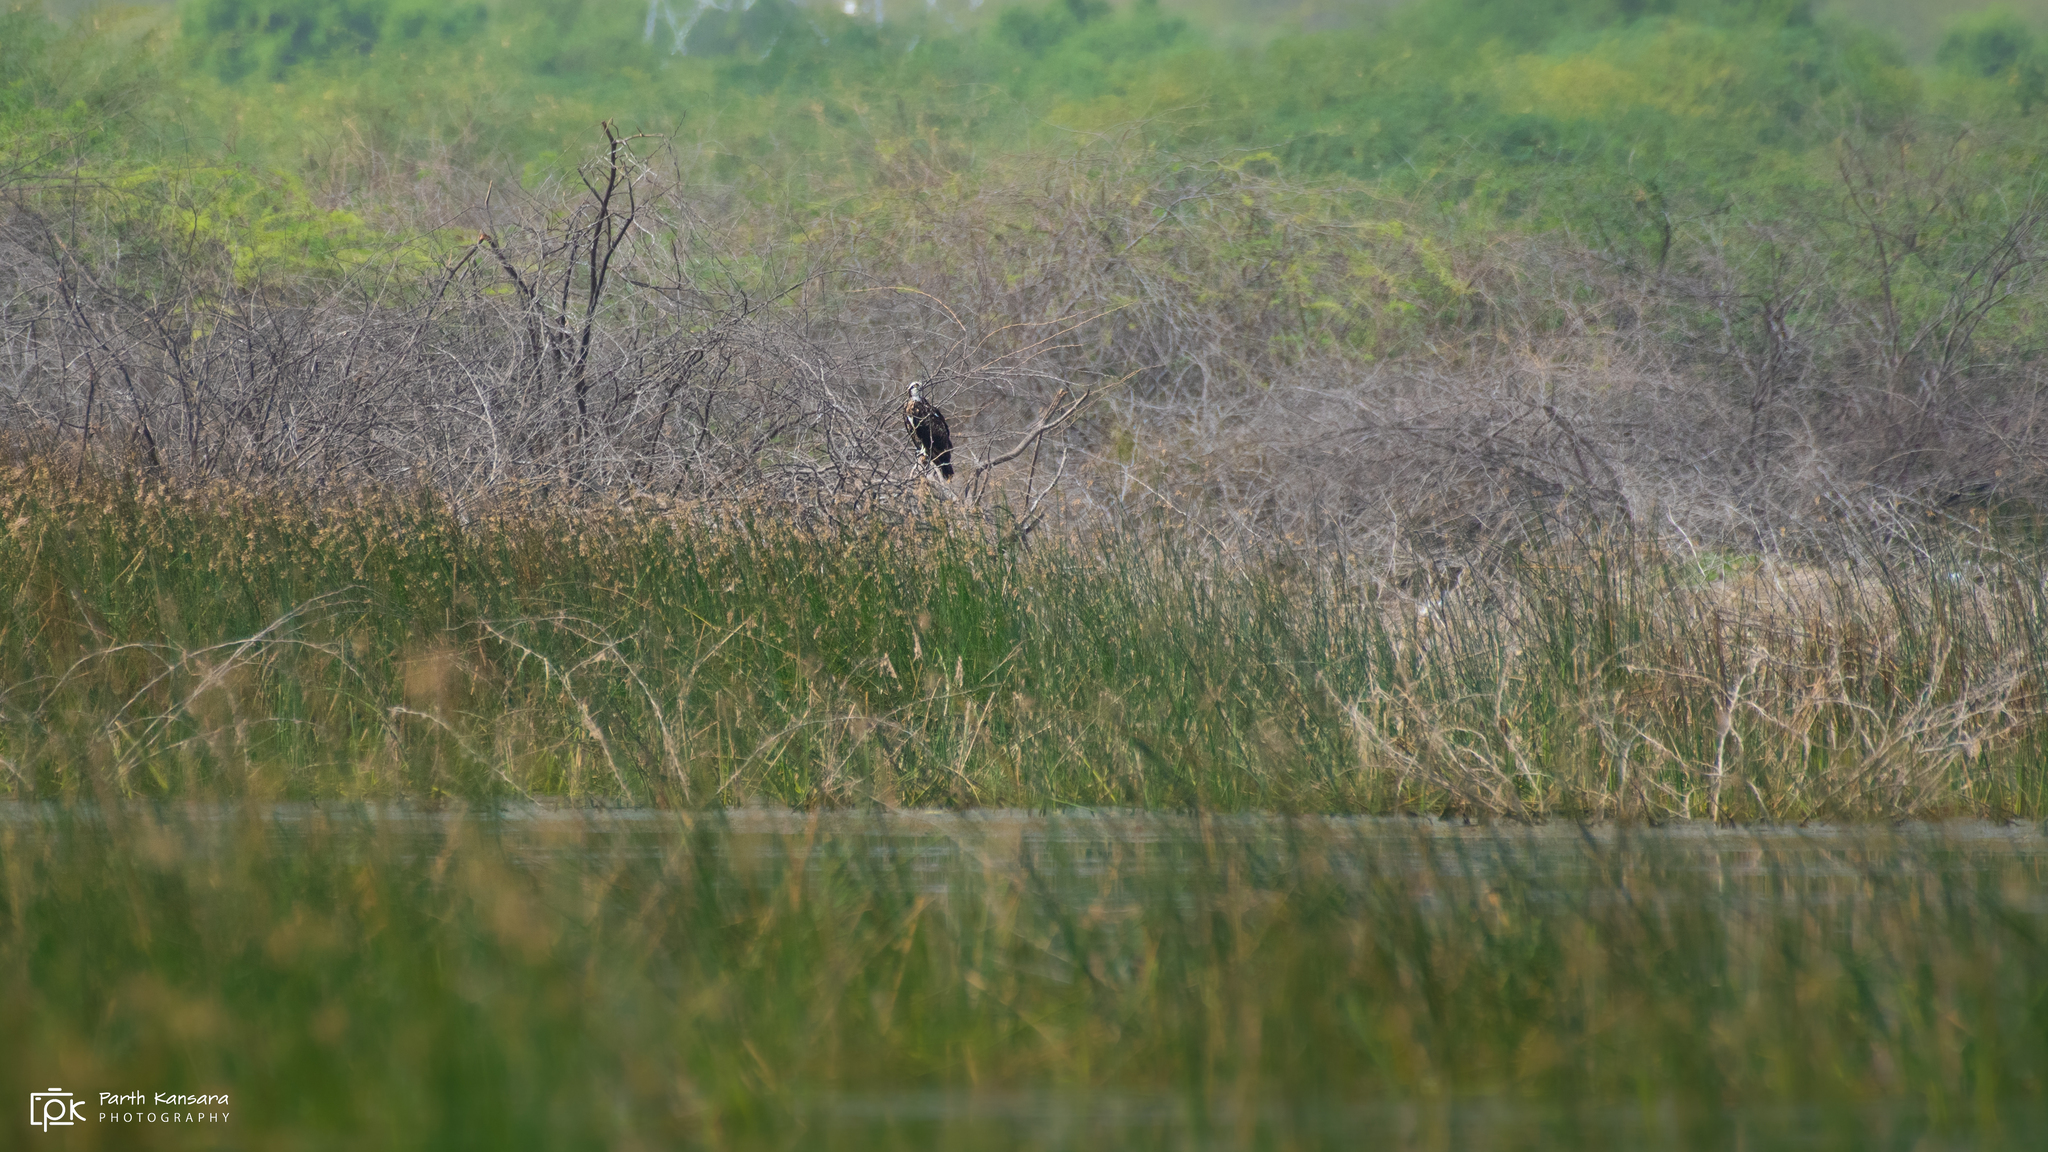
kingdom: Animalia
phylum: Chordata
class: Aves
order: Accipitriformes
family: Pandionidae
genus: Pandion
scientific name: Pandion haliaetus
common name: Osprey
